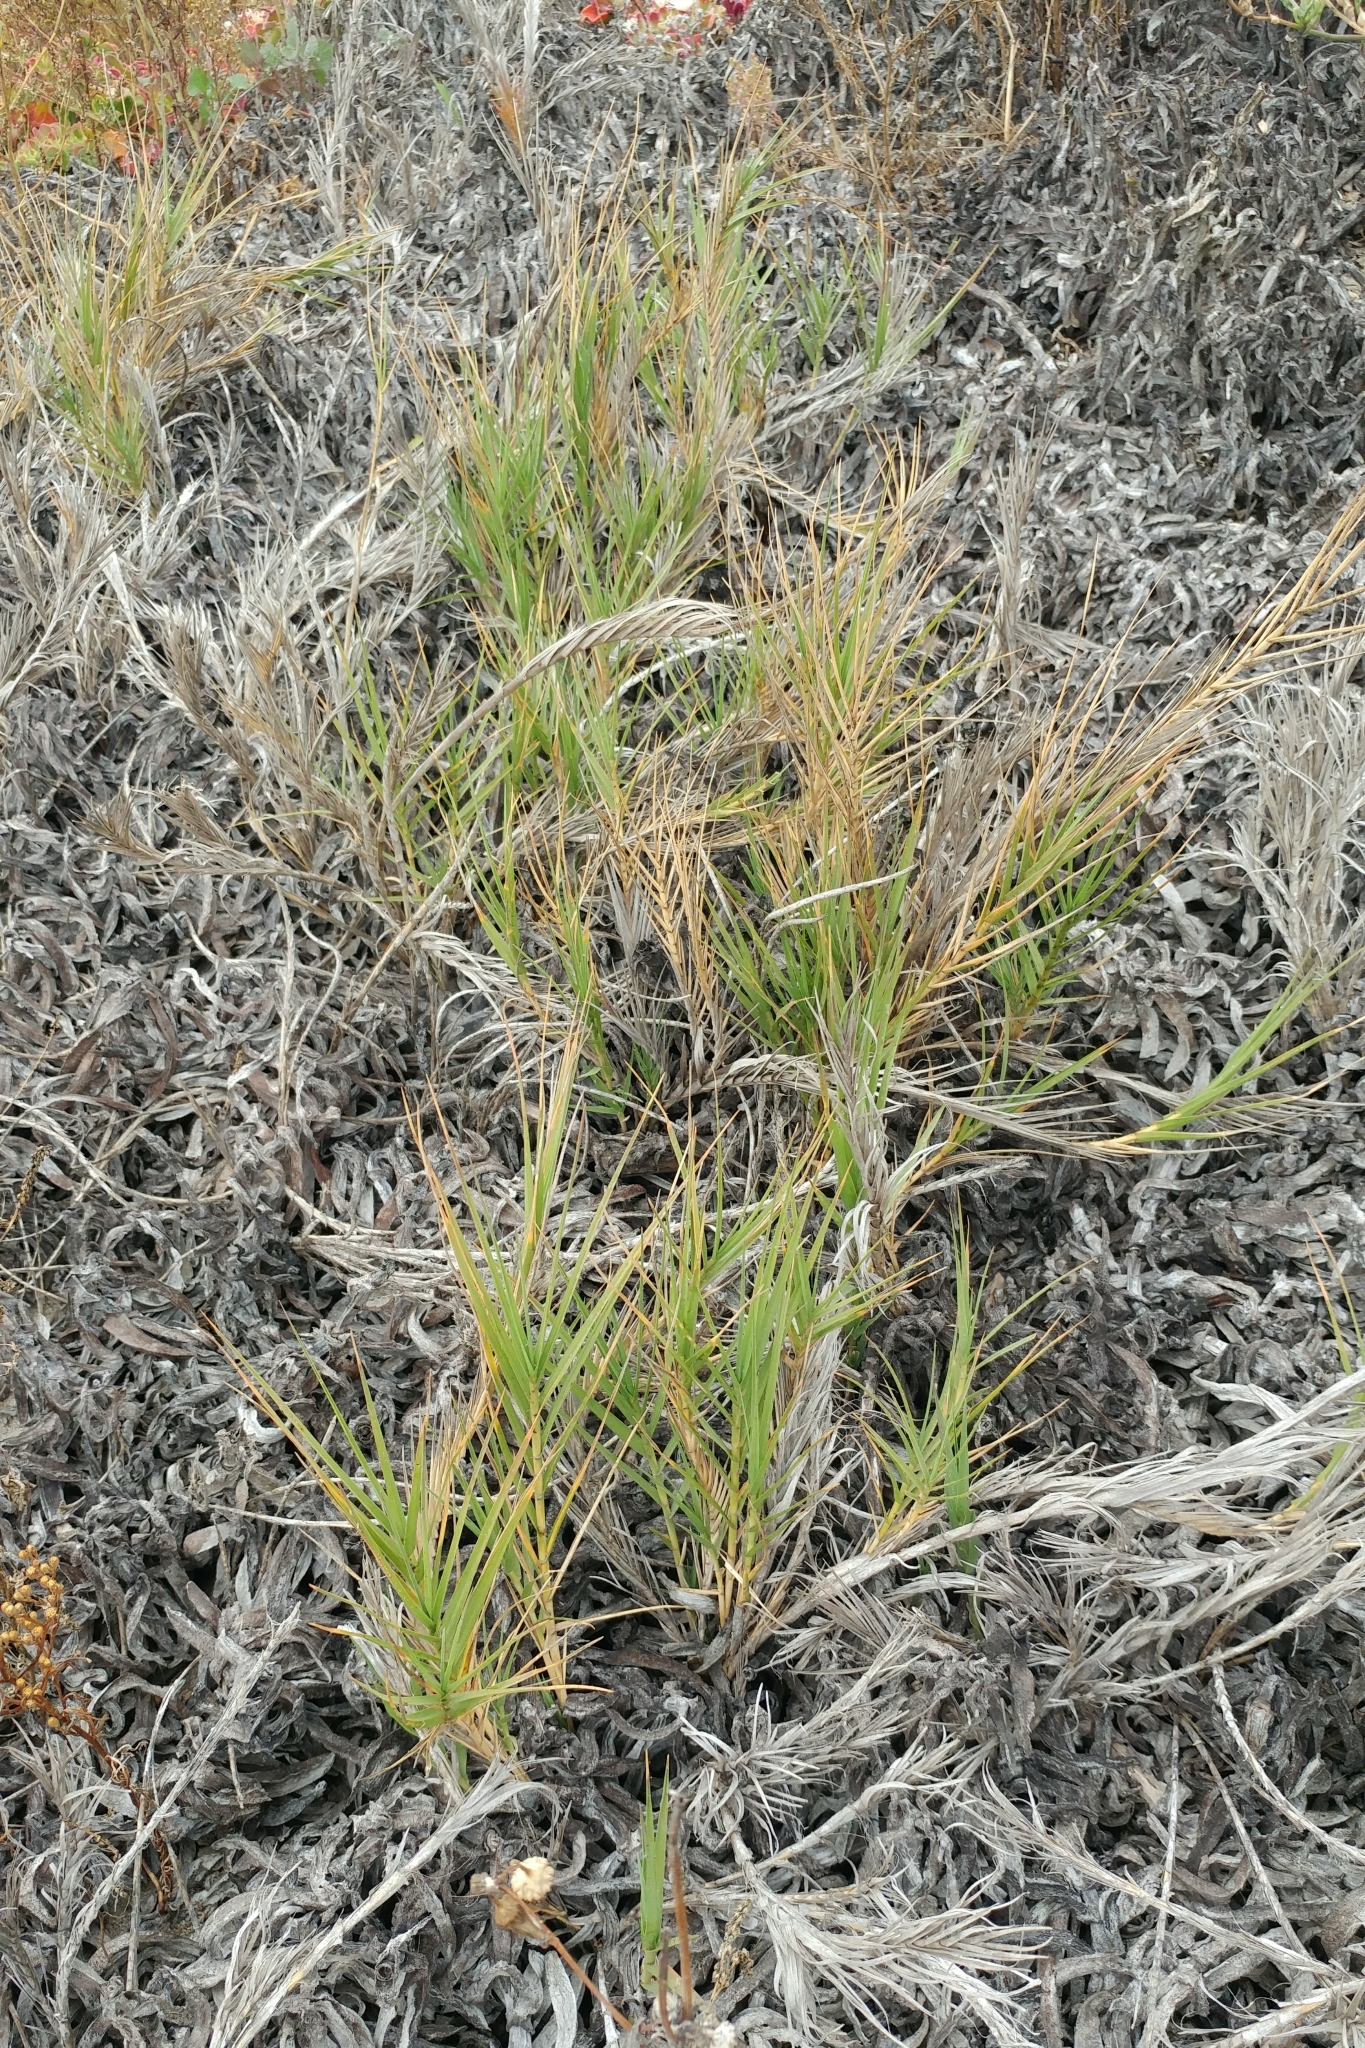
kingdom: Plantae
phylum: Tracheophyta
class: Liliopsida
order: Poales
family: Poaceae
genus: Distichlis
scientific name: Distichlis spicata
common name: Saltgrass
